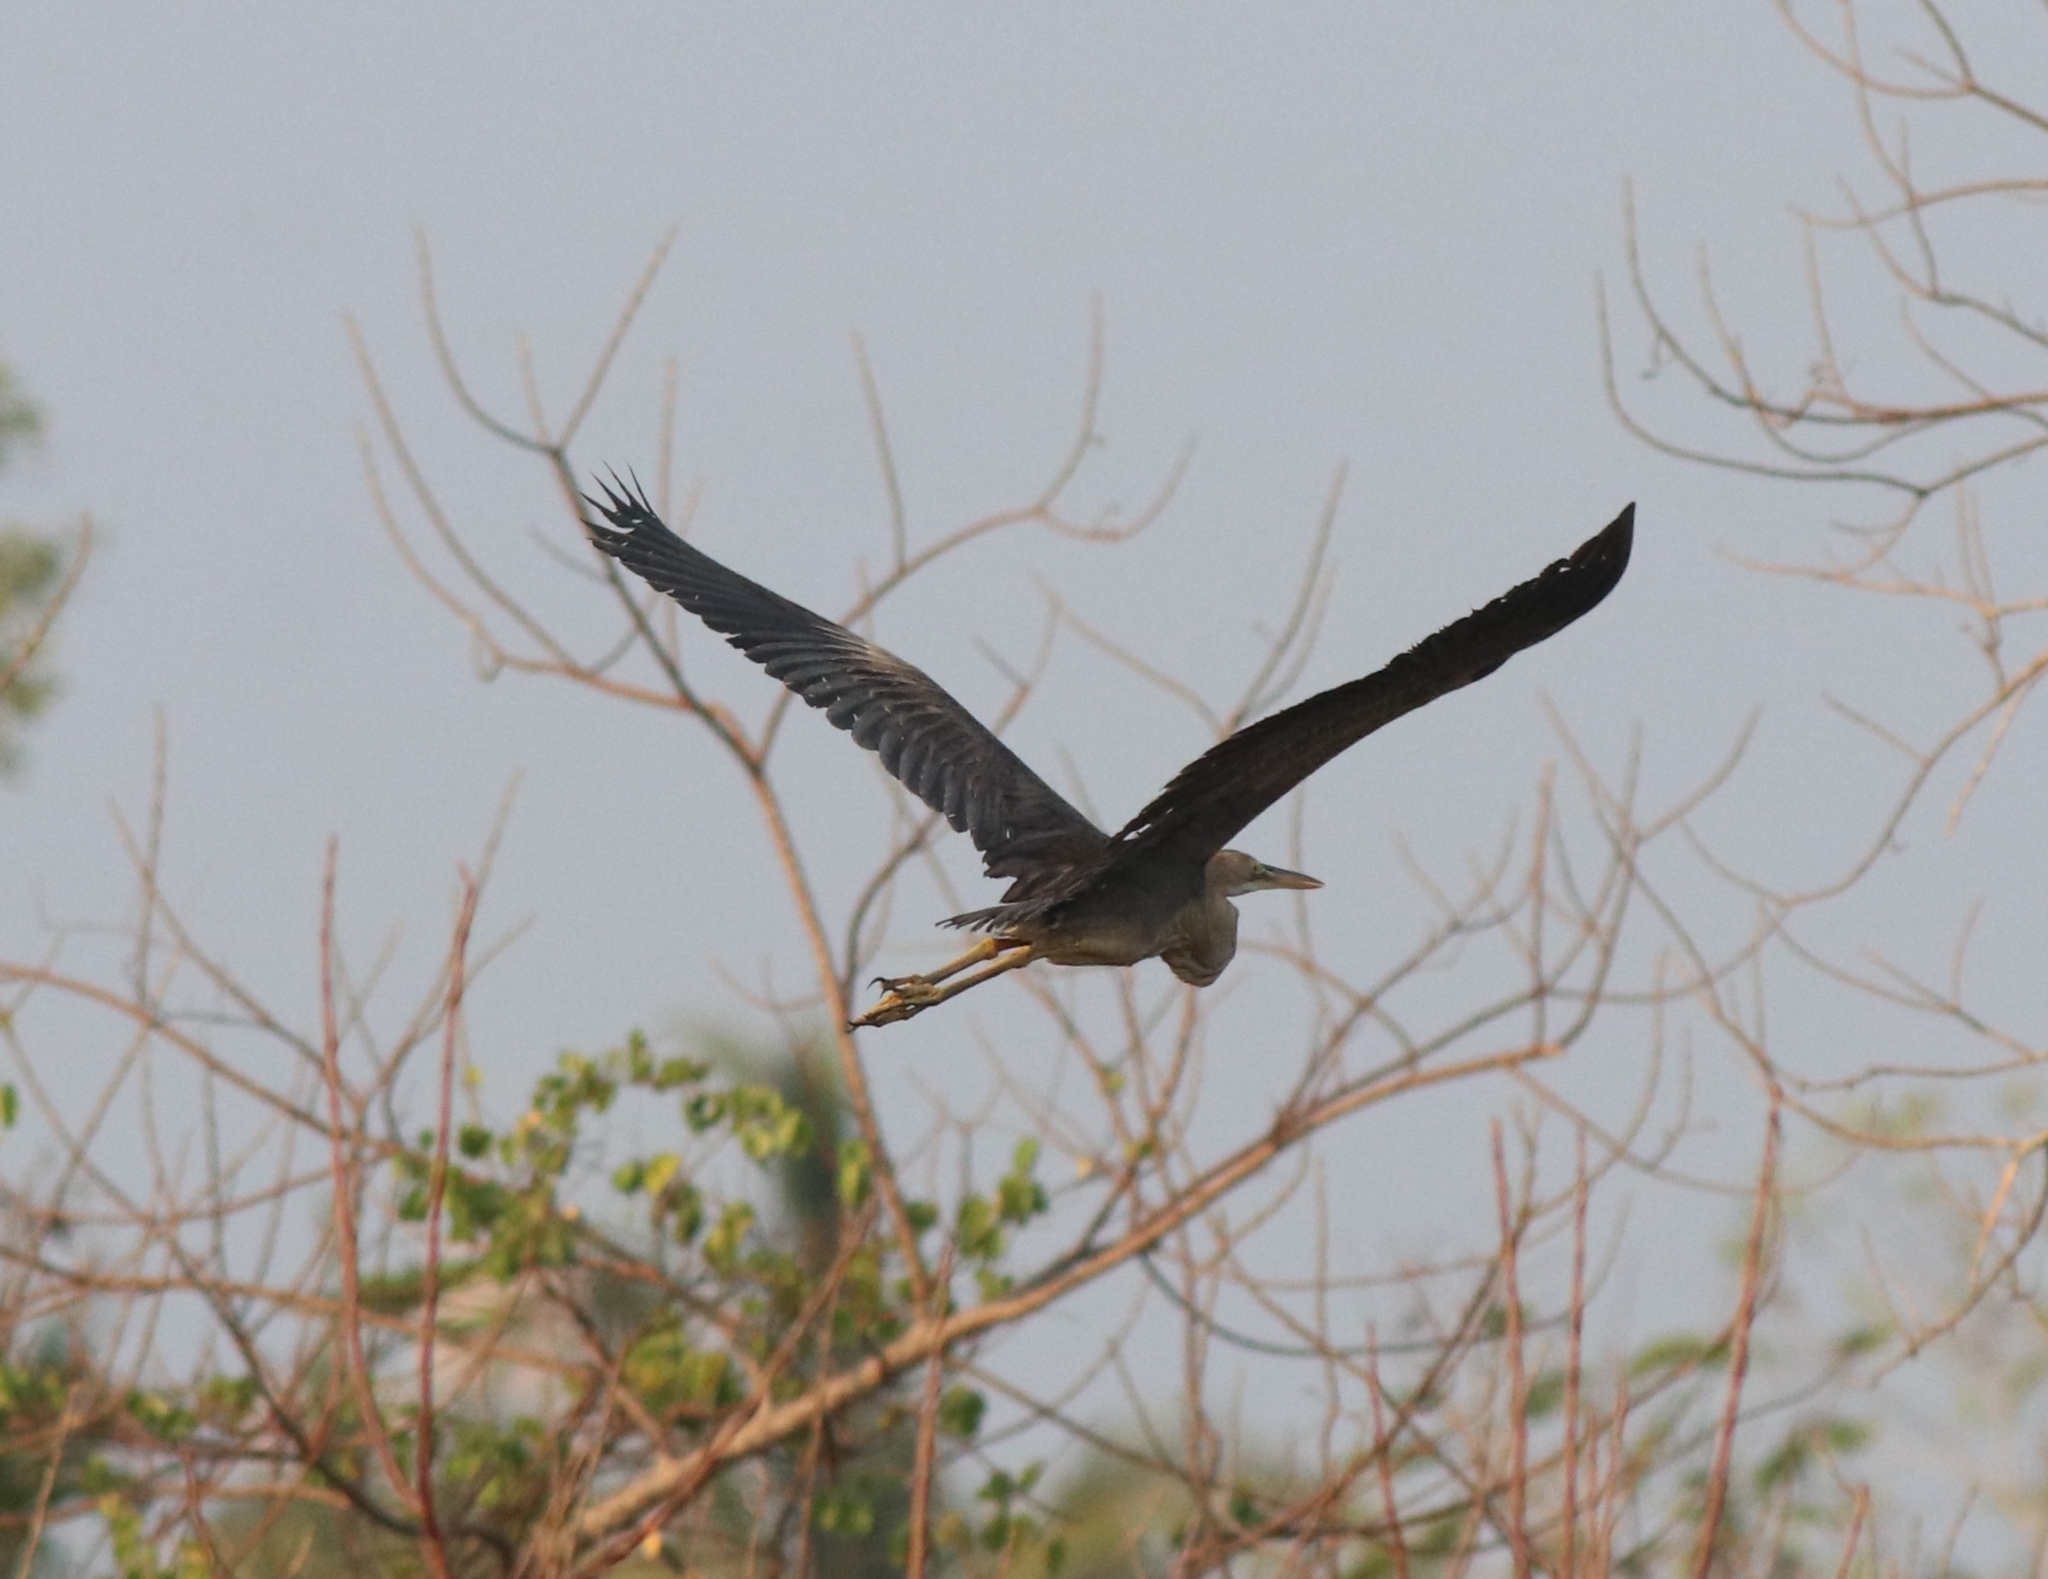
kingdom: Animalia
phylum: Chordata
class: Aves
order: Pelecaniformes
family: Ardeidae
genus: Ardea
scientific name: Ardea purpurea
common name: Purple heron
